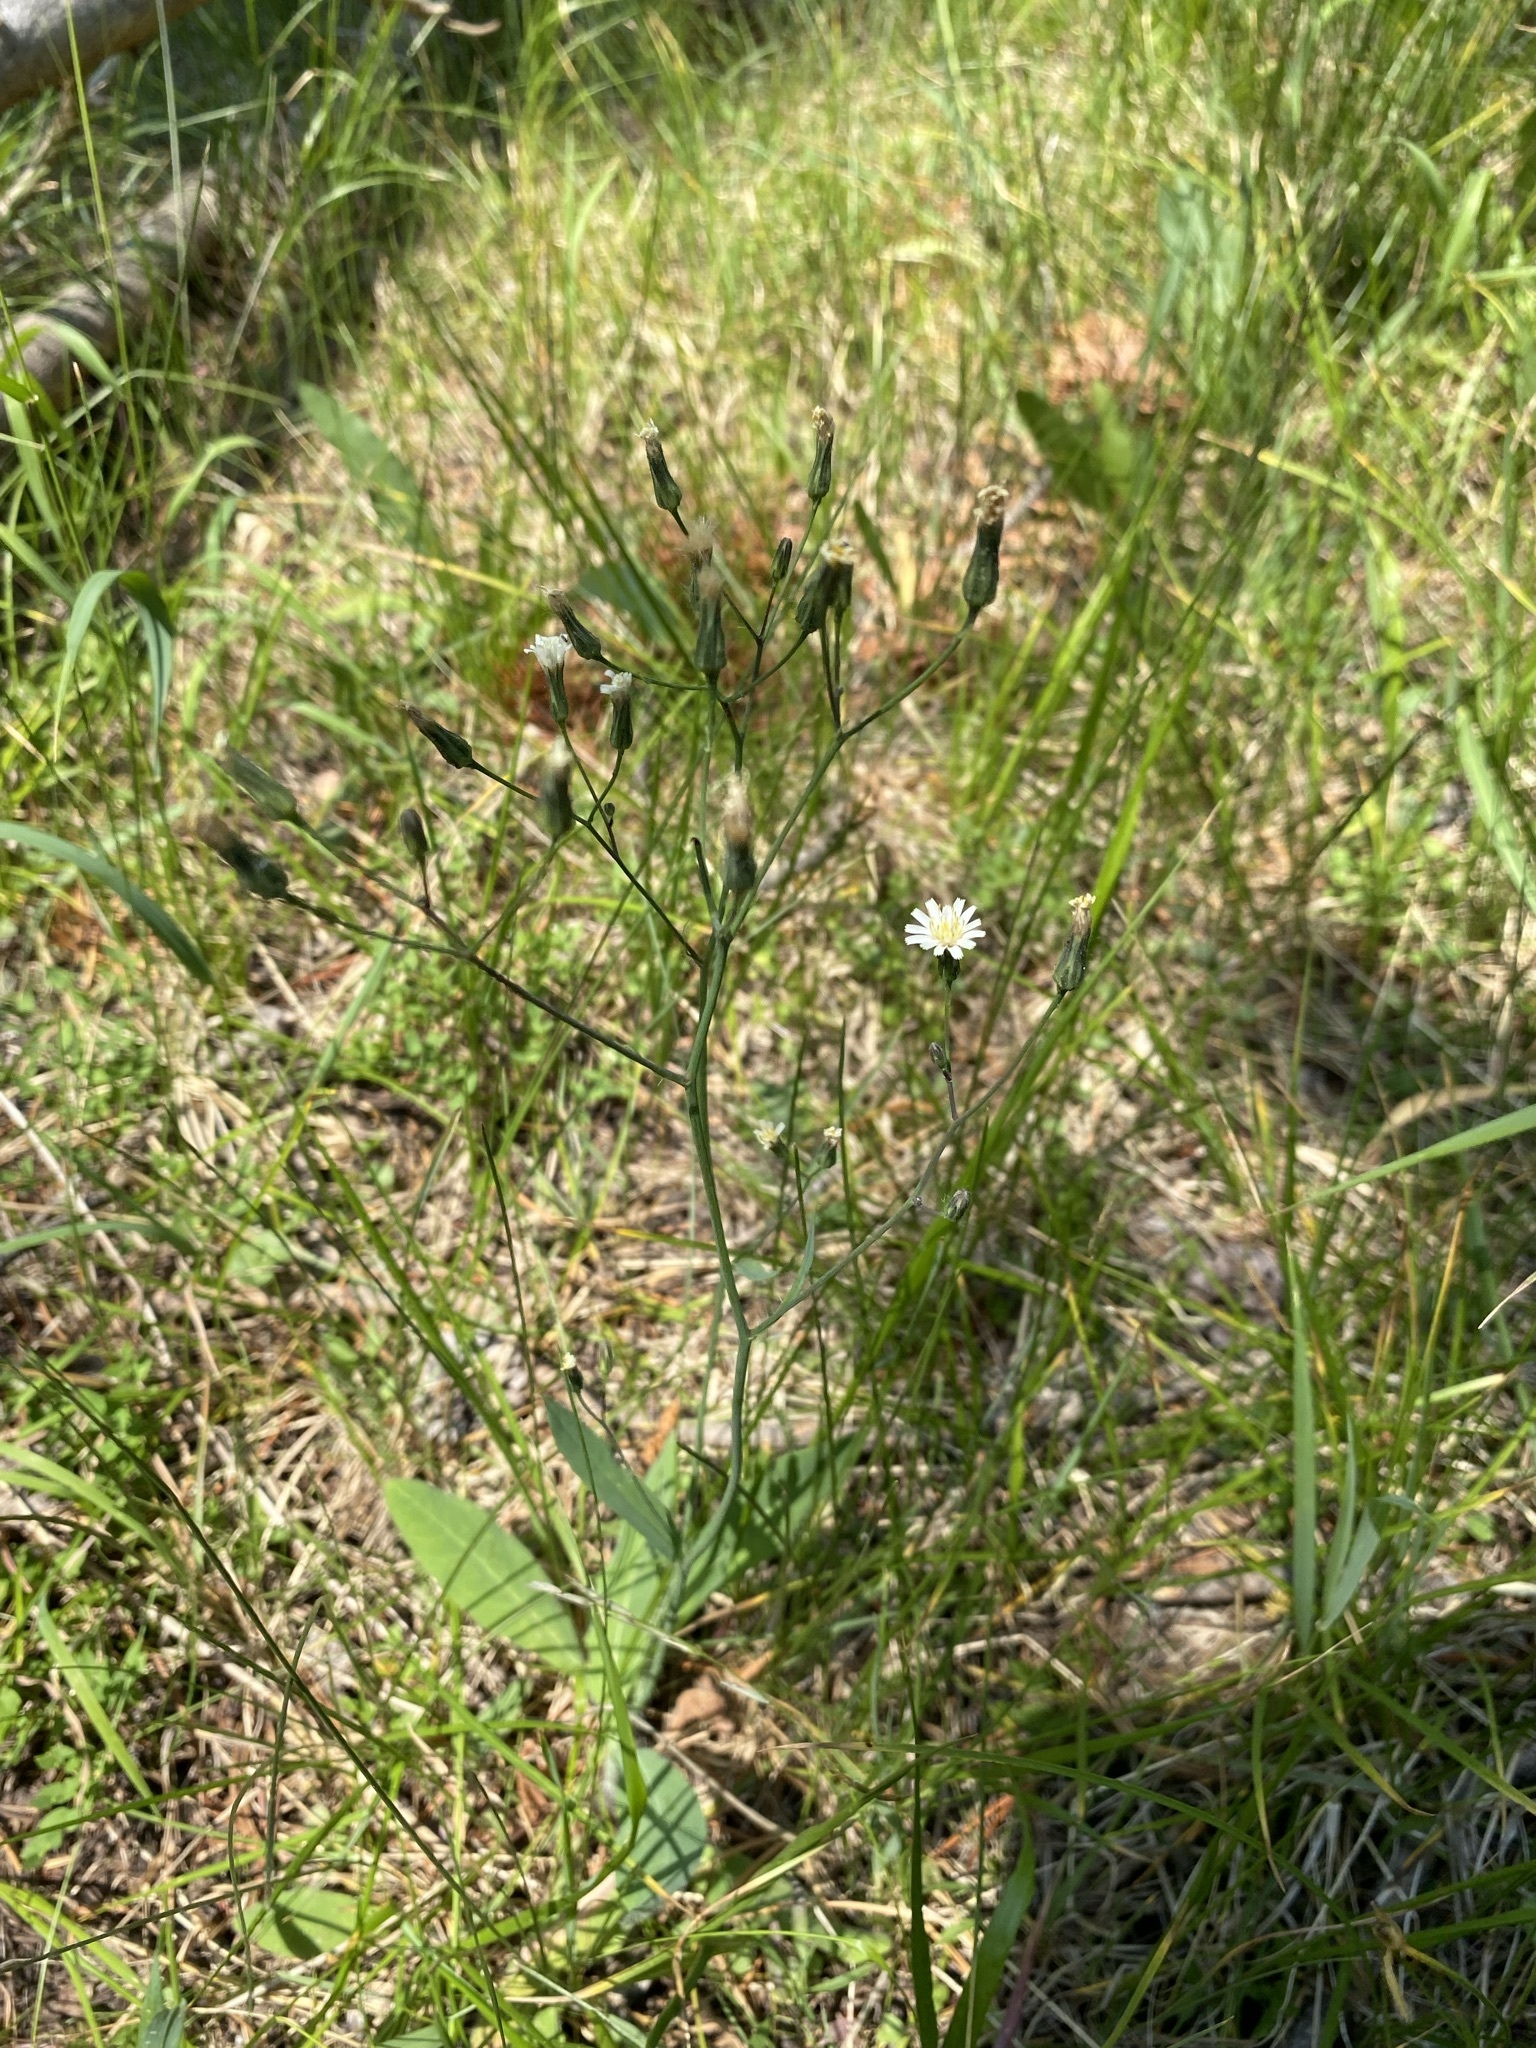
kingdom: Plantae
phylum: Tracheophyta
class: Magnoliopsida
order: Asterales
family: Asteraceae
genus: Hieracium
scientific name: Hieracium albiflorum
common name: White hawkweed
